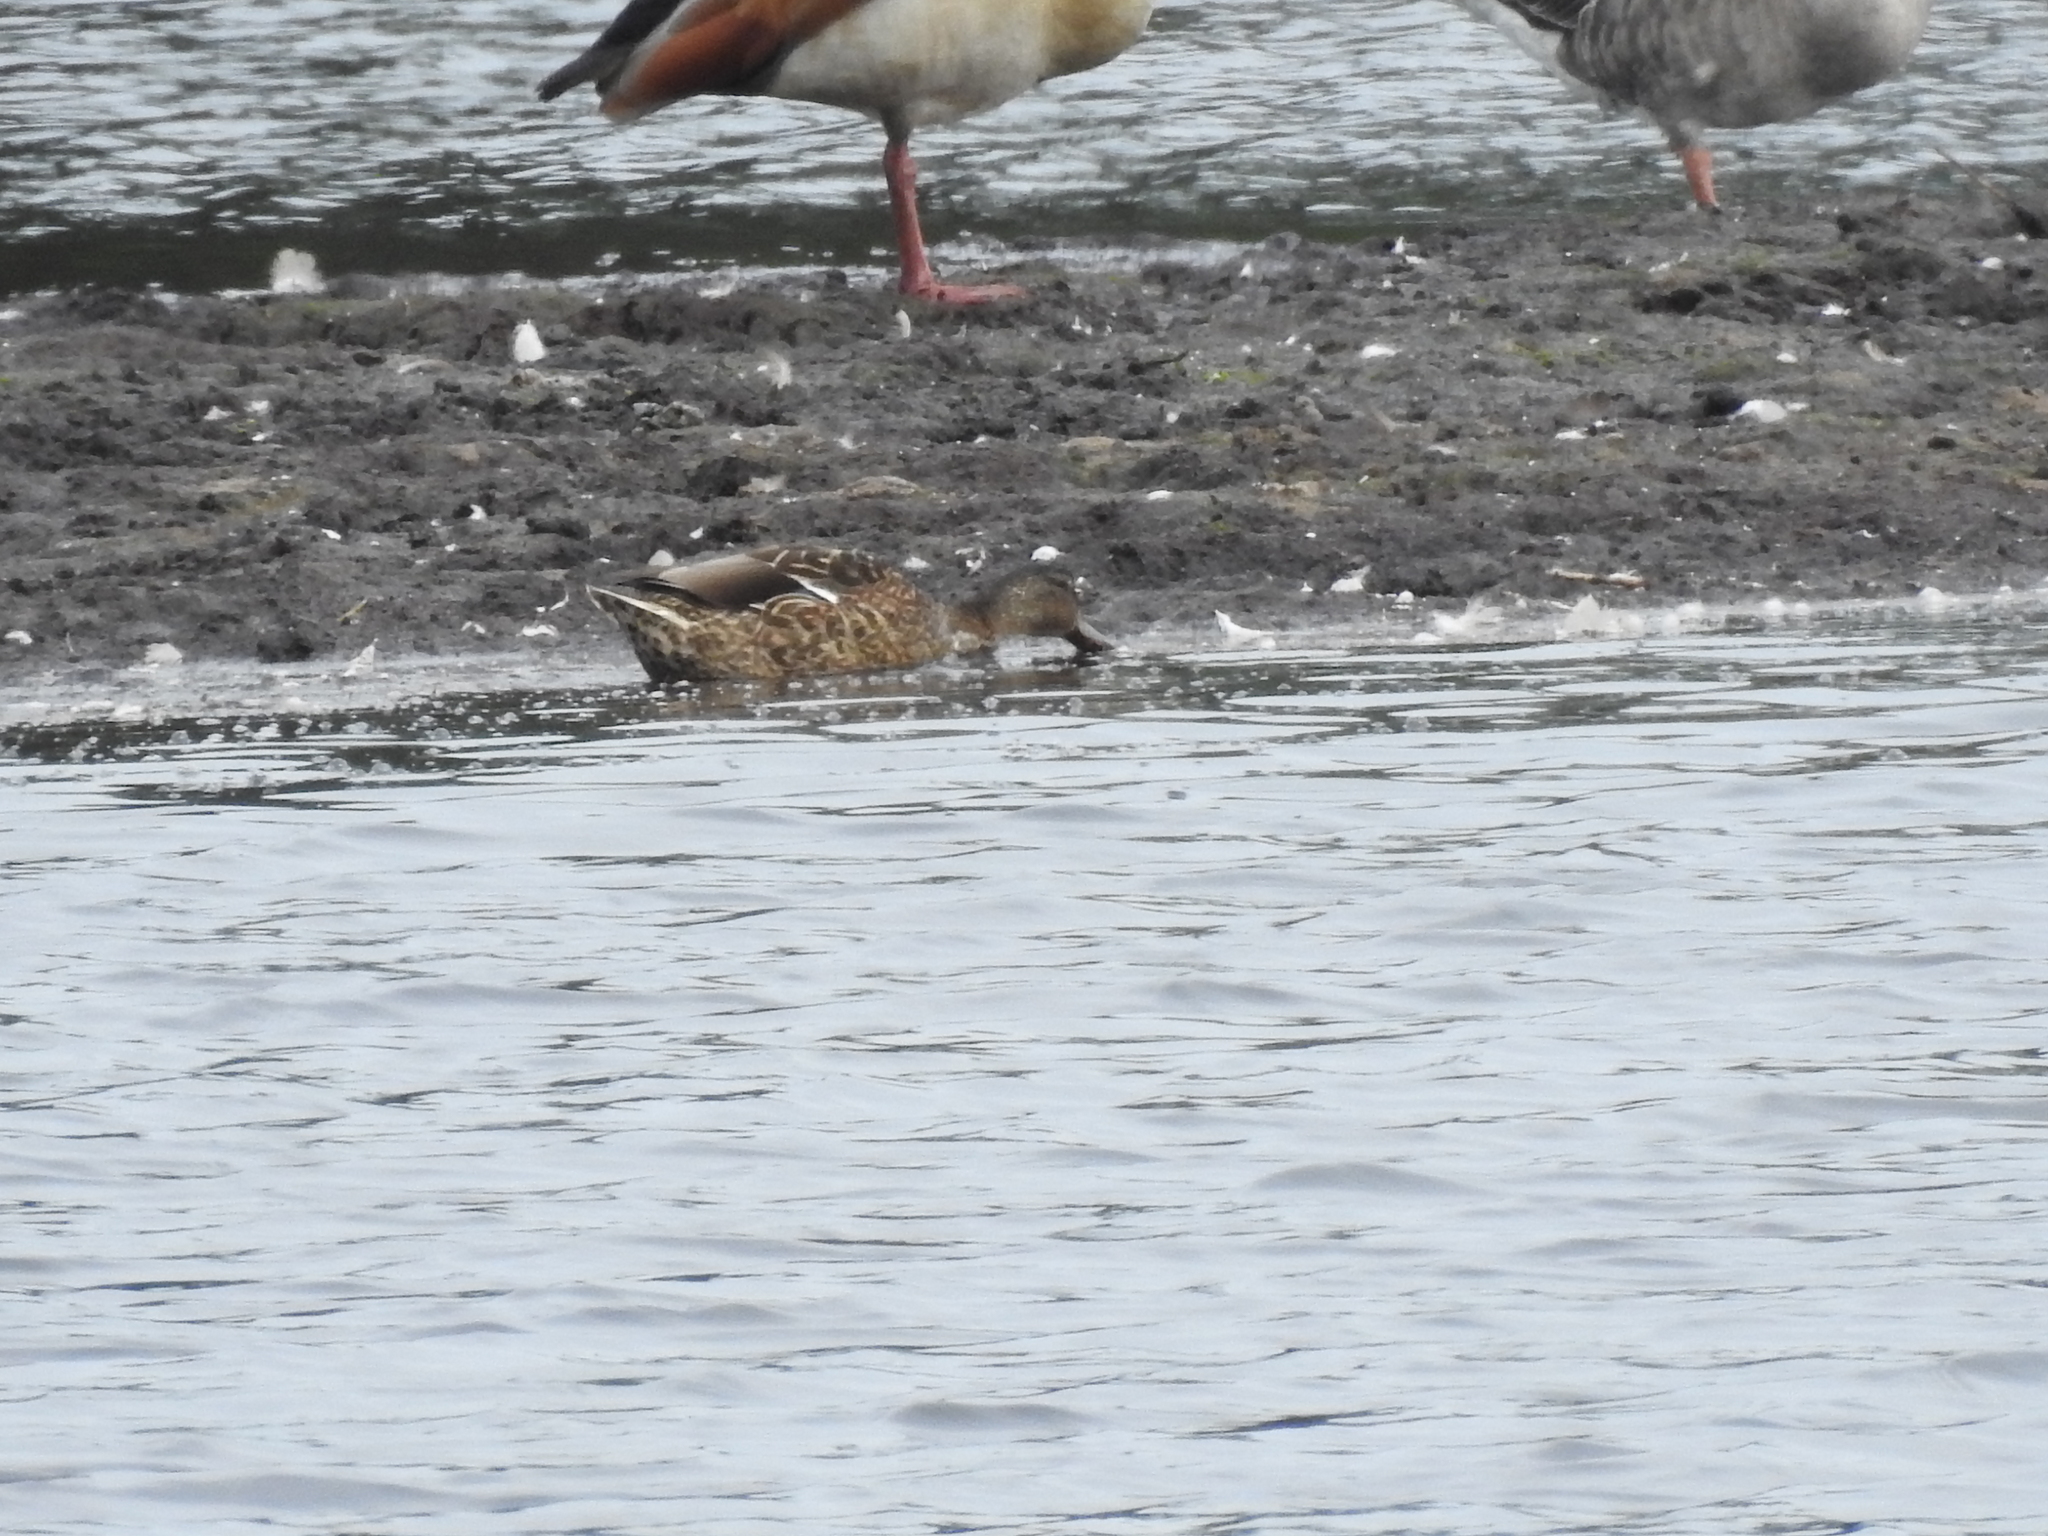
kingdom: Animalia
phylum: Chordata
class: Aves
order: Anseriformes
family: Anatidae
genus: Anas
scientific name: Anas platyrhynchos
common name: Mallard
